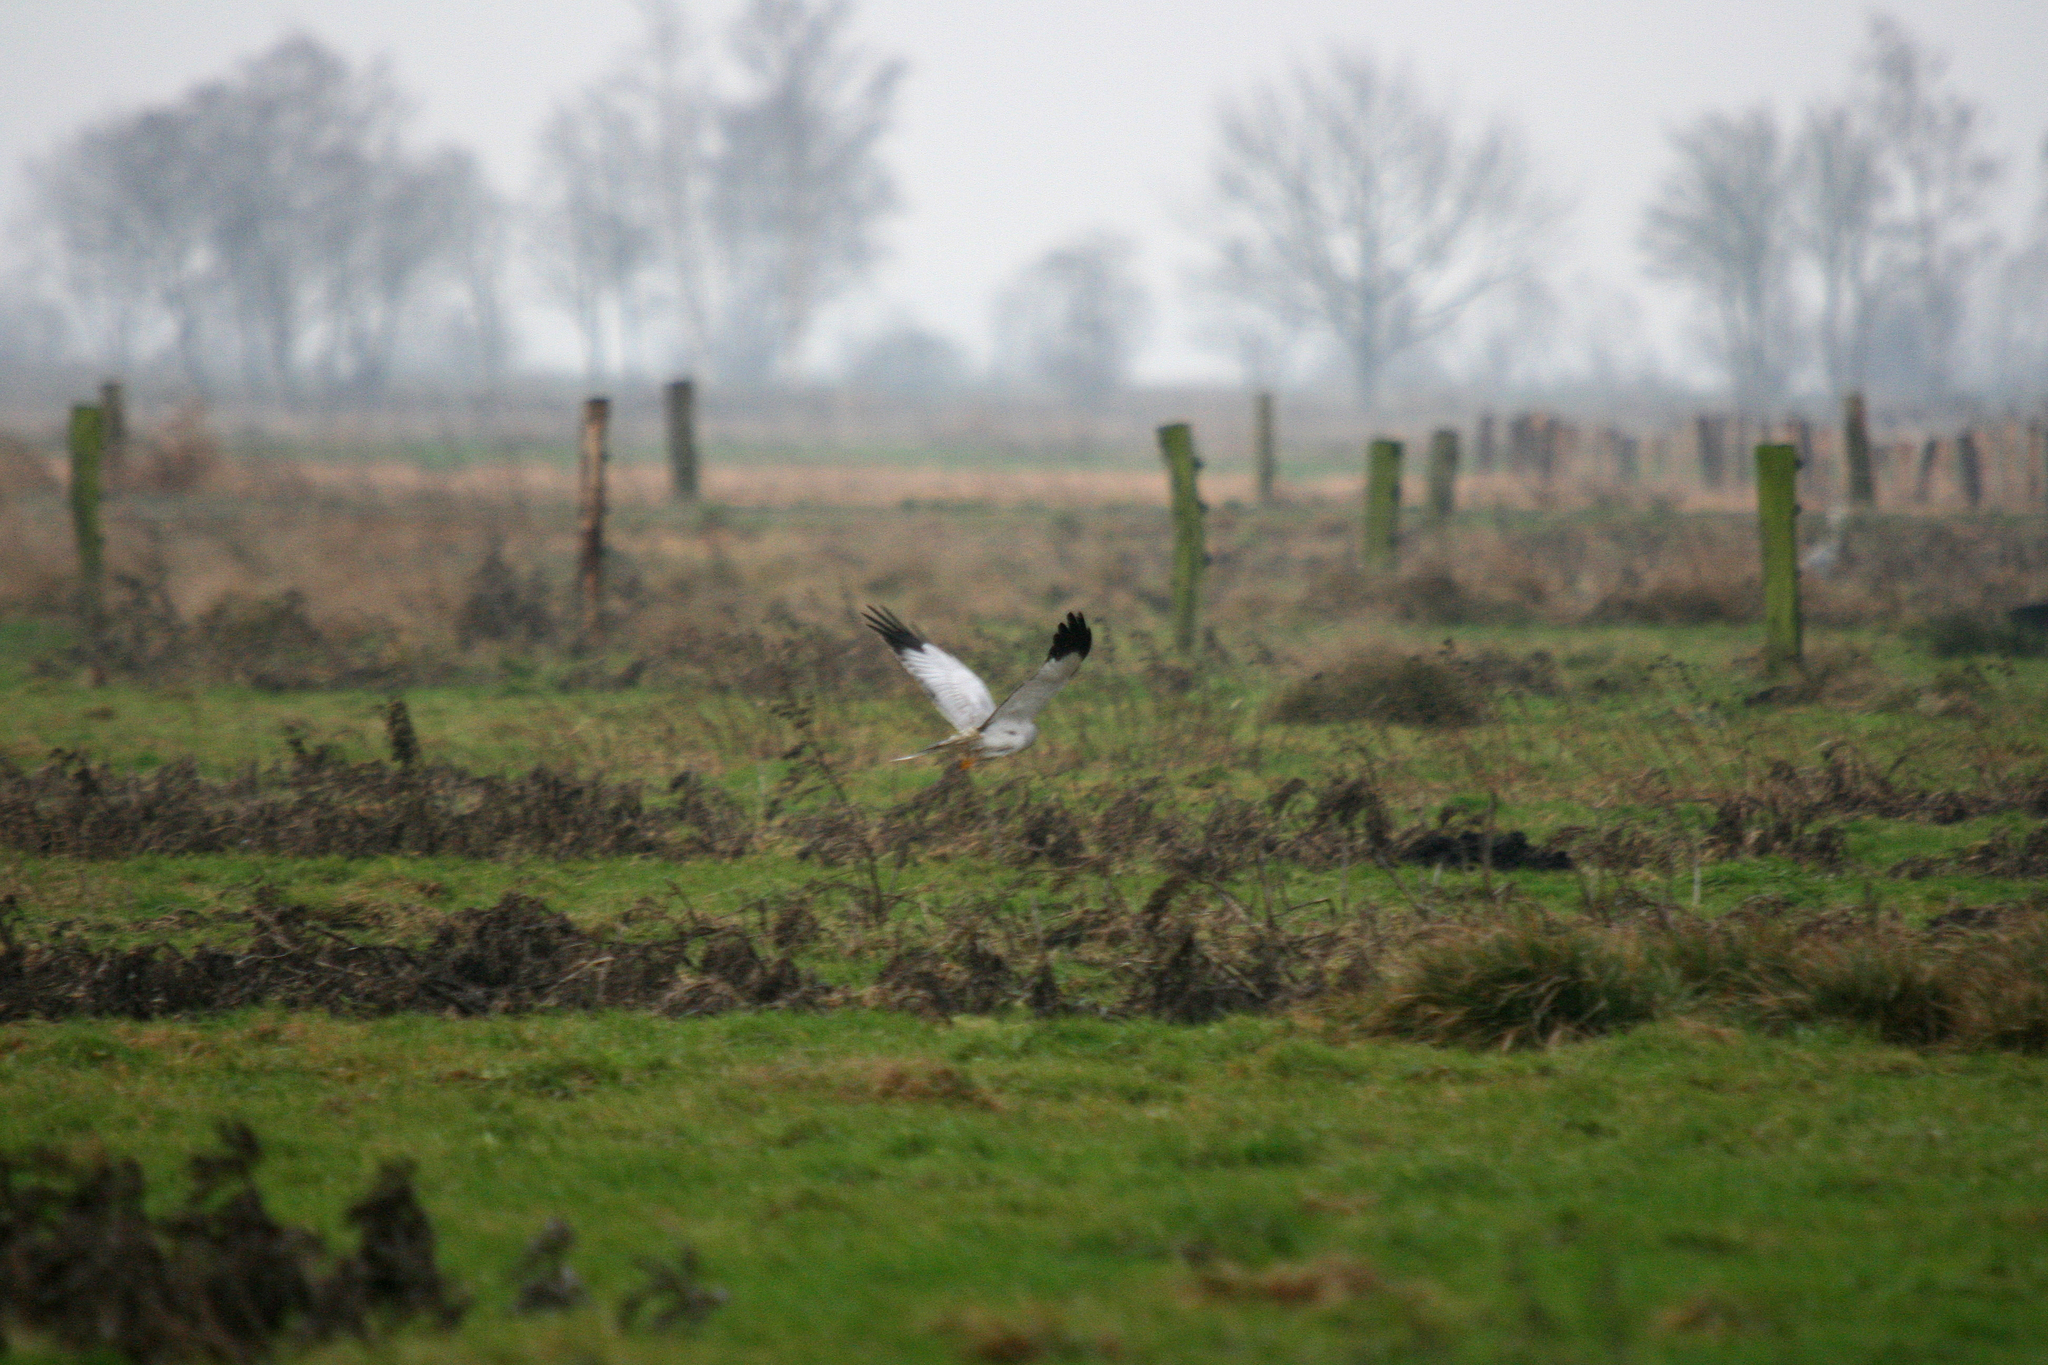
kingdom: Animalia
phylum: Chordata
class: Aves
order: Accipitriformes
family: Accipitridae
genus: Circus
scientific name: Circus cyaneus
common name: Hen harrier
